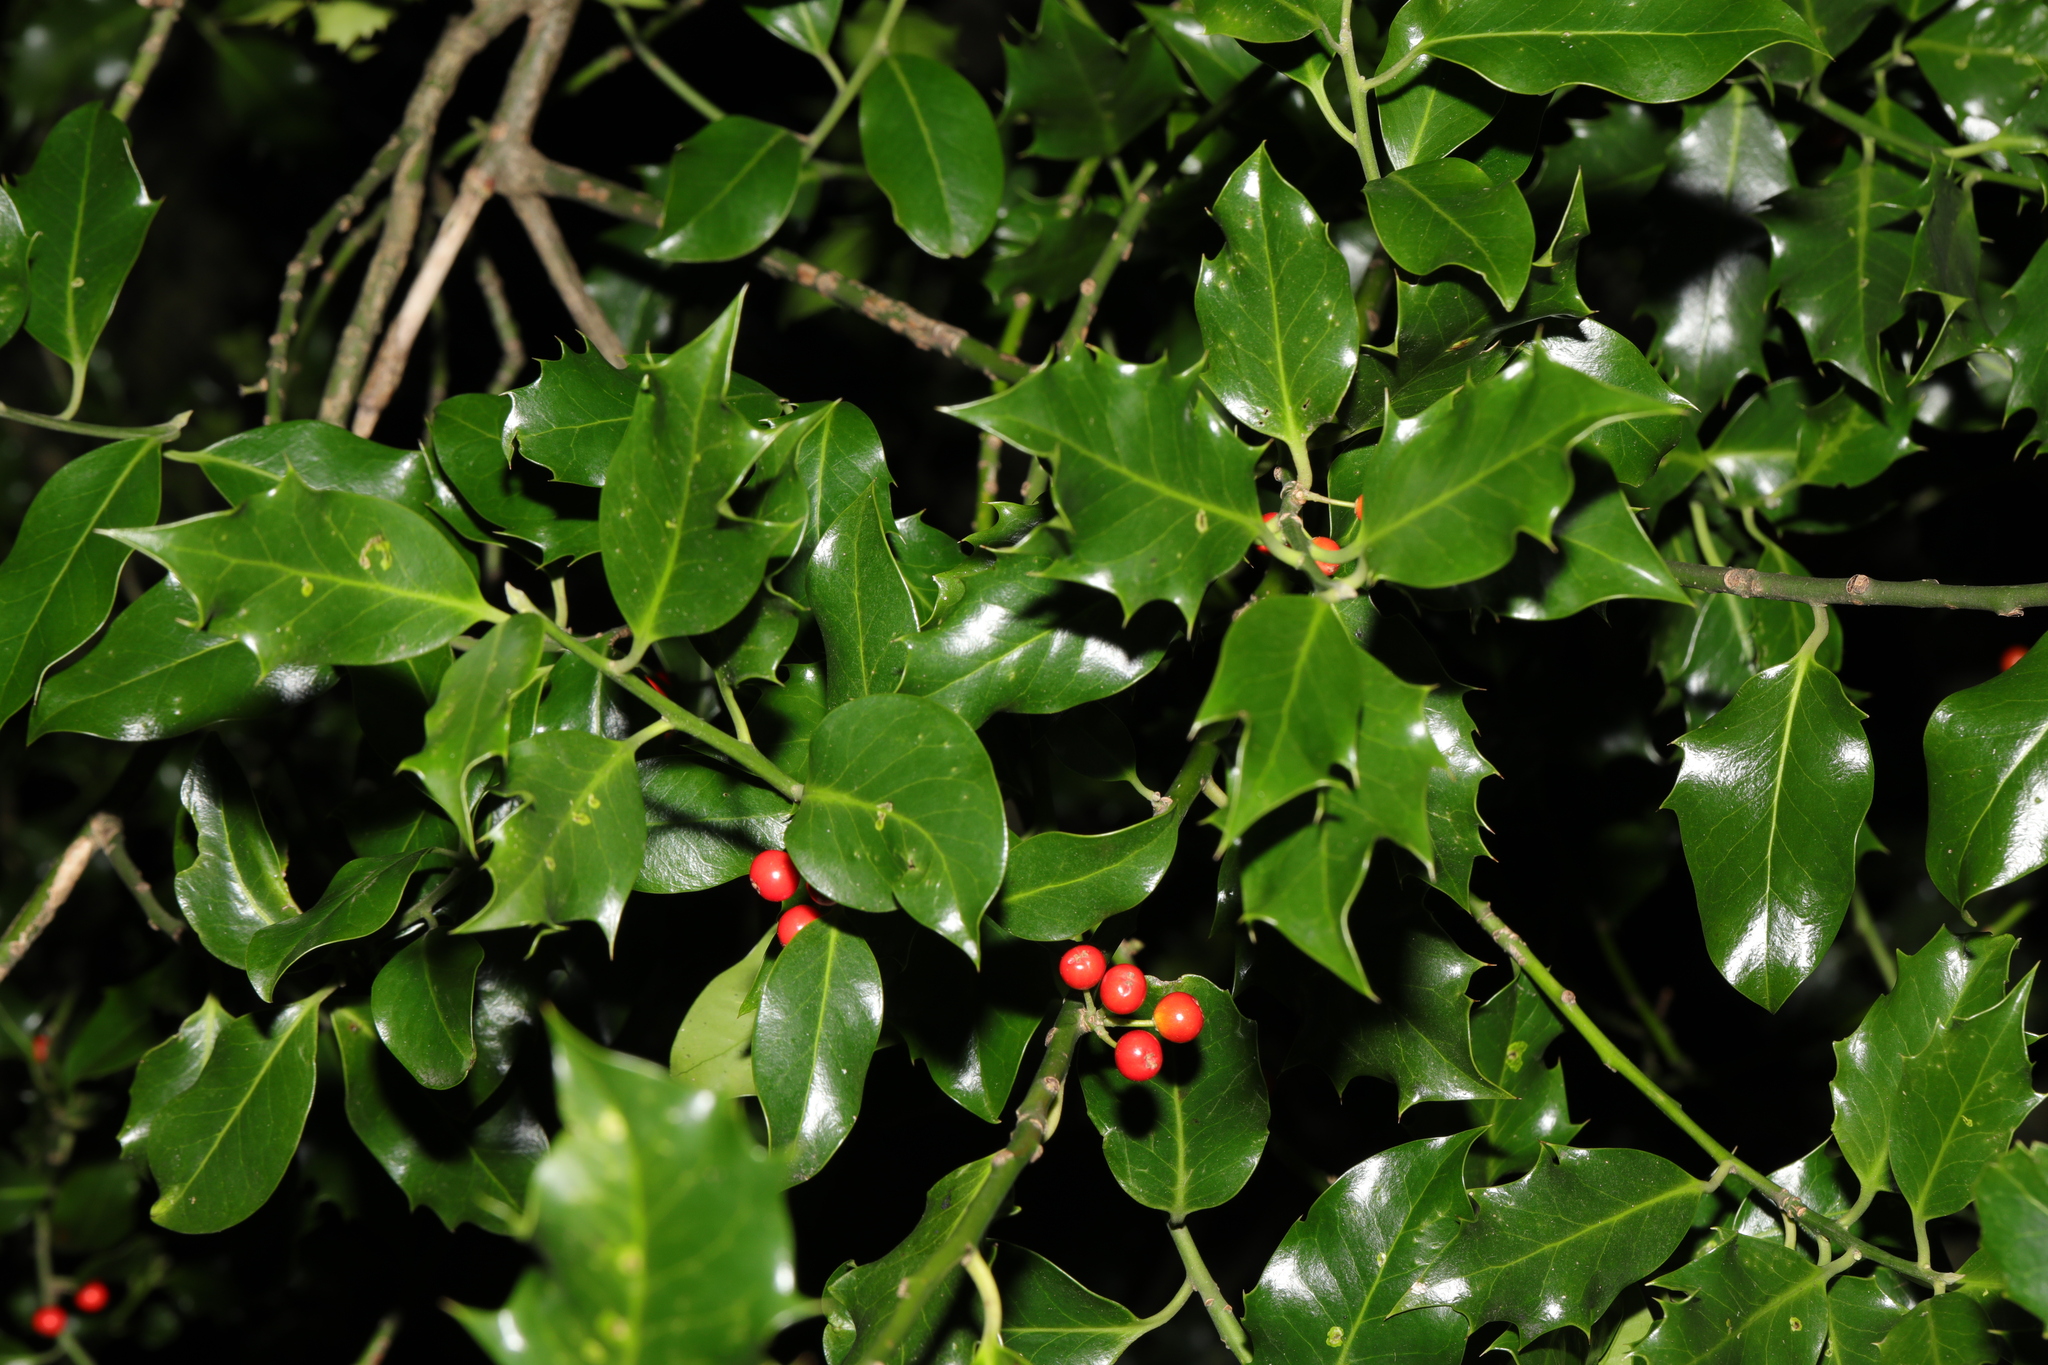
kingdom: Plantae
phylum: Tracheophyta
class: Magnoliopsida
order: Aquifoliales
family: Aquifoliaceae
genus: Ilex
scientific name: Ilex aquifolium
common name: English holly
